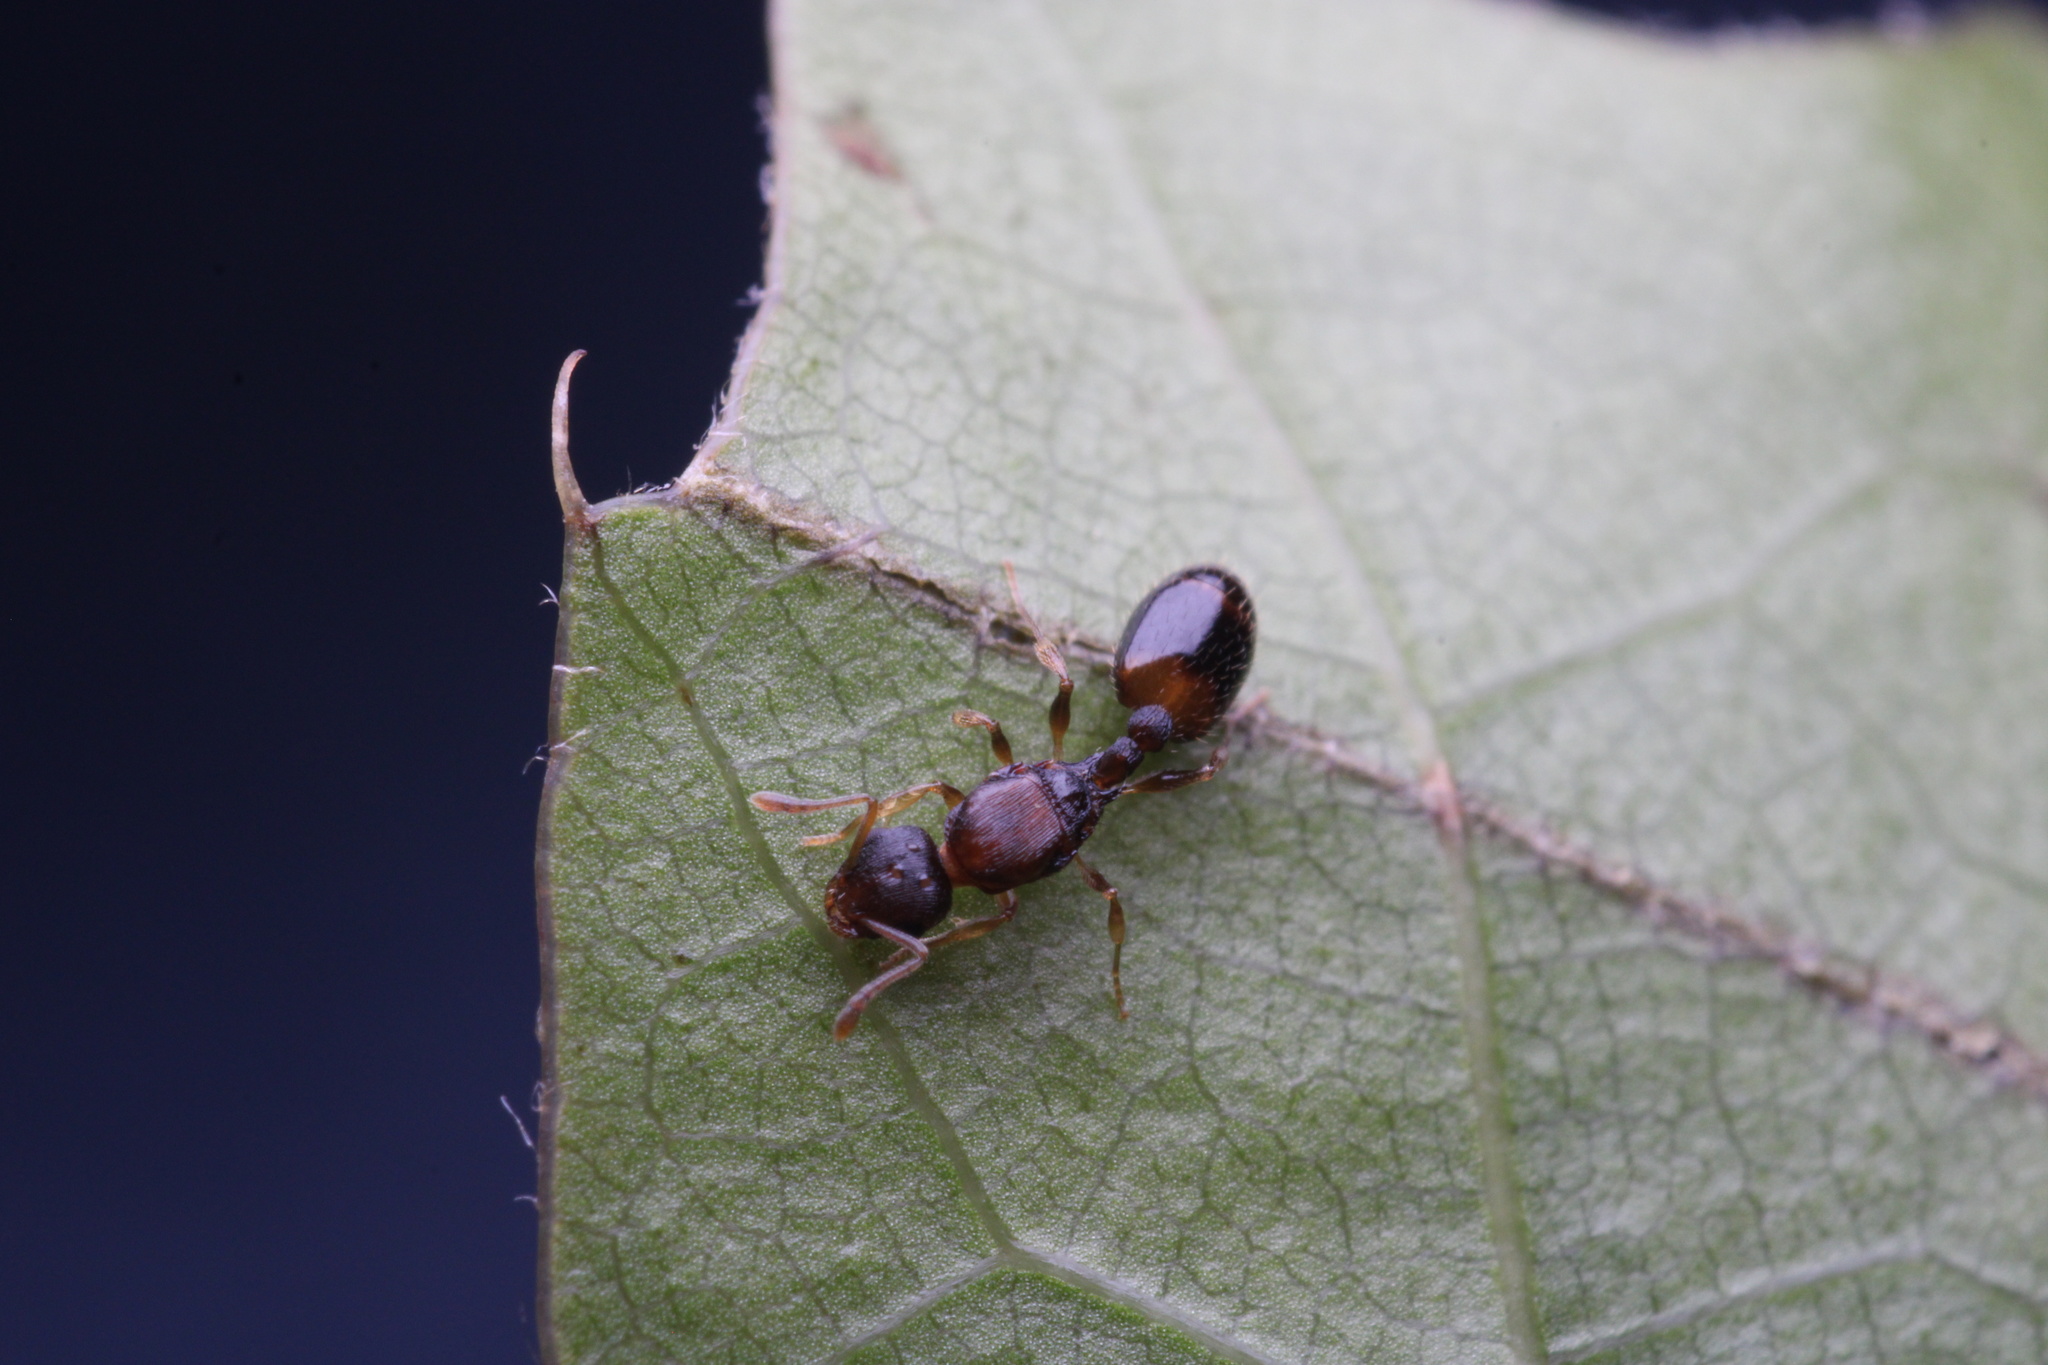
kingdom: Animalia
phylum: Arthropoda
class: Insecta
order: Hymenoptera
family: Formicidae
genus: Temnothorax
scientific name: Temnothorax
